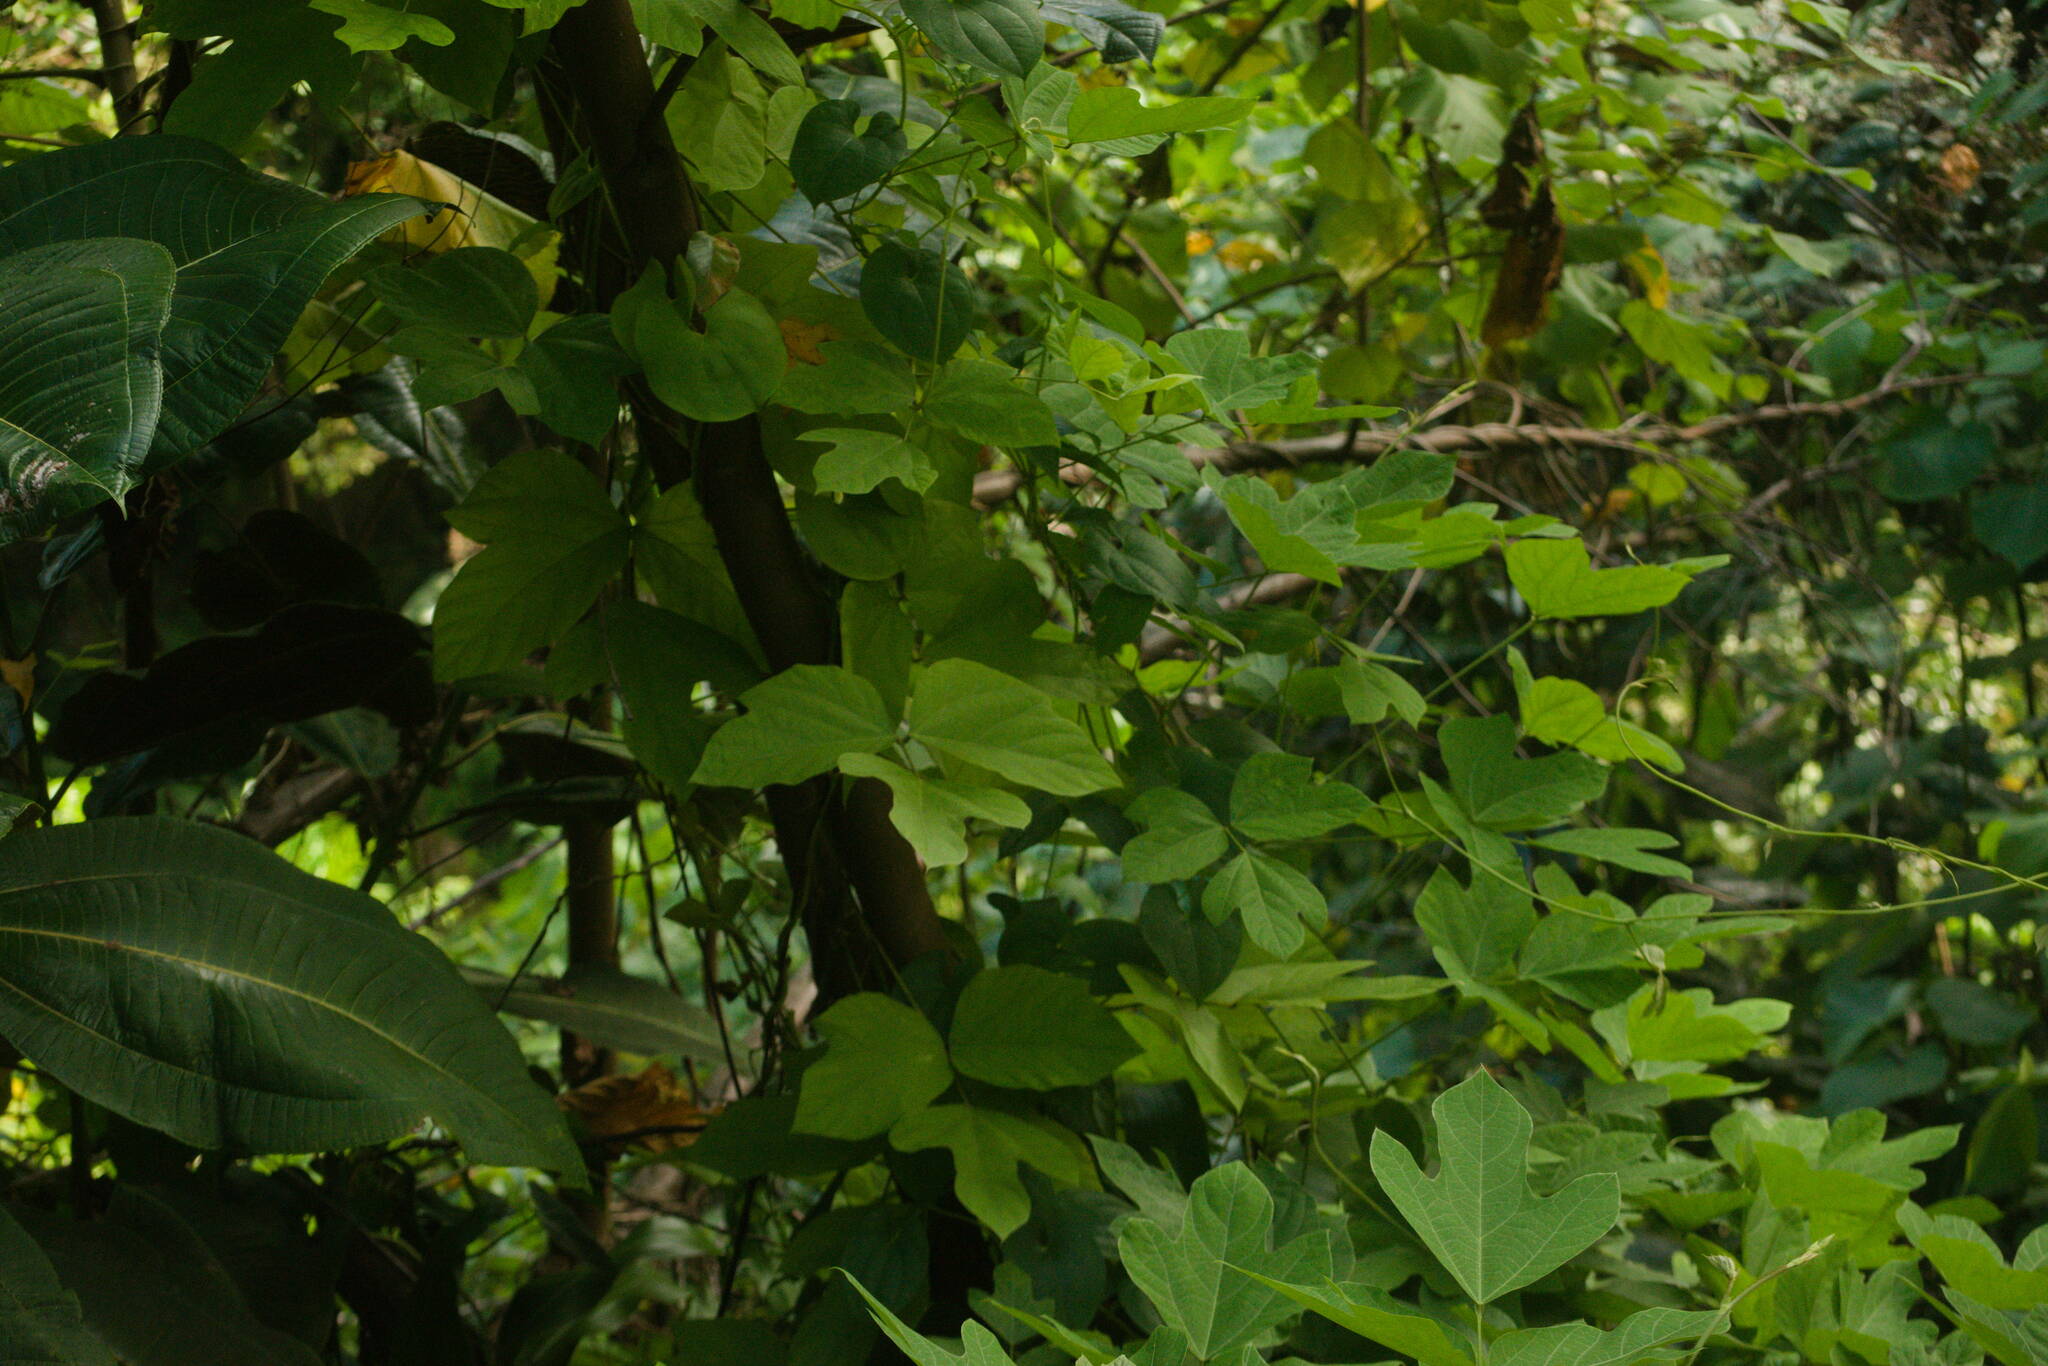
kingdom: Plantae
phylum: Tracheophyta
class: Magnoliopsida
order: Fabales
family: Fabaceae
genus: Pueraria
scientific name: Pueraria montana
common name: Kudzu
